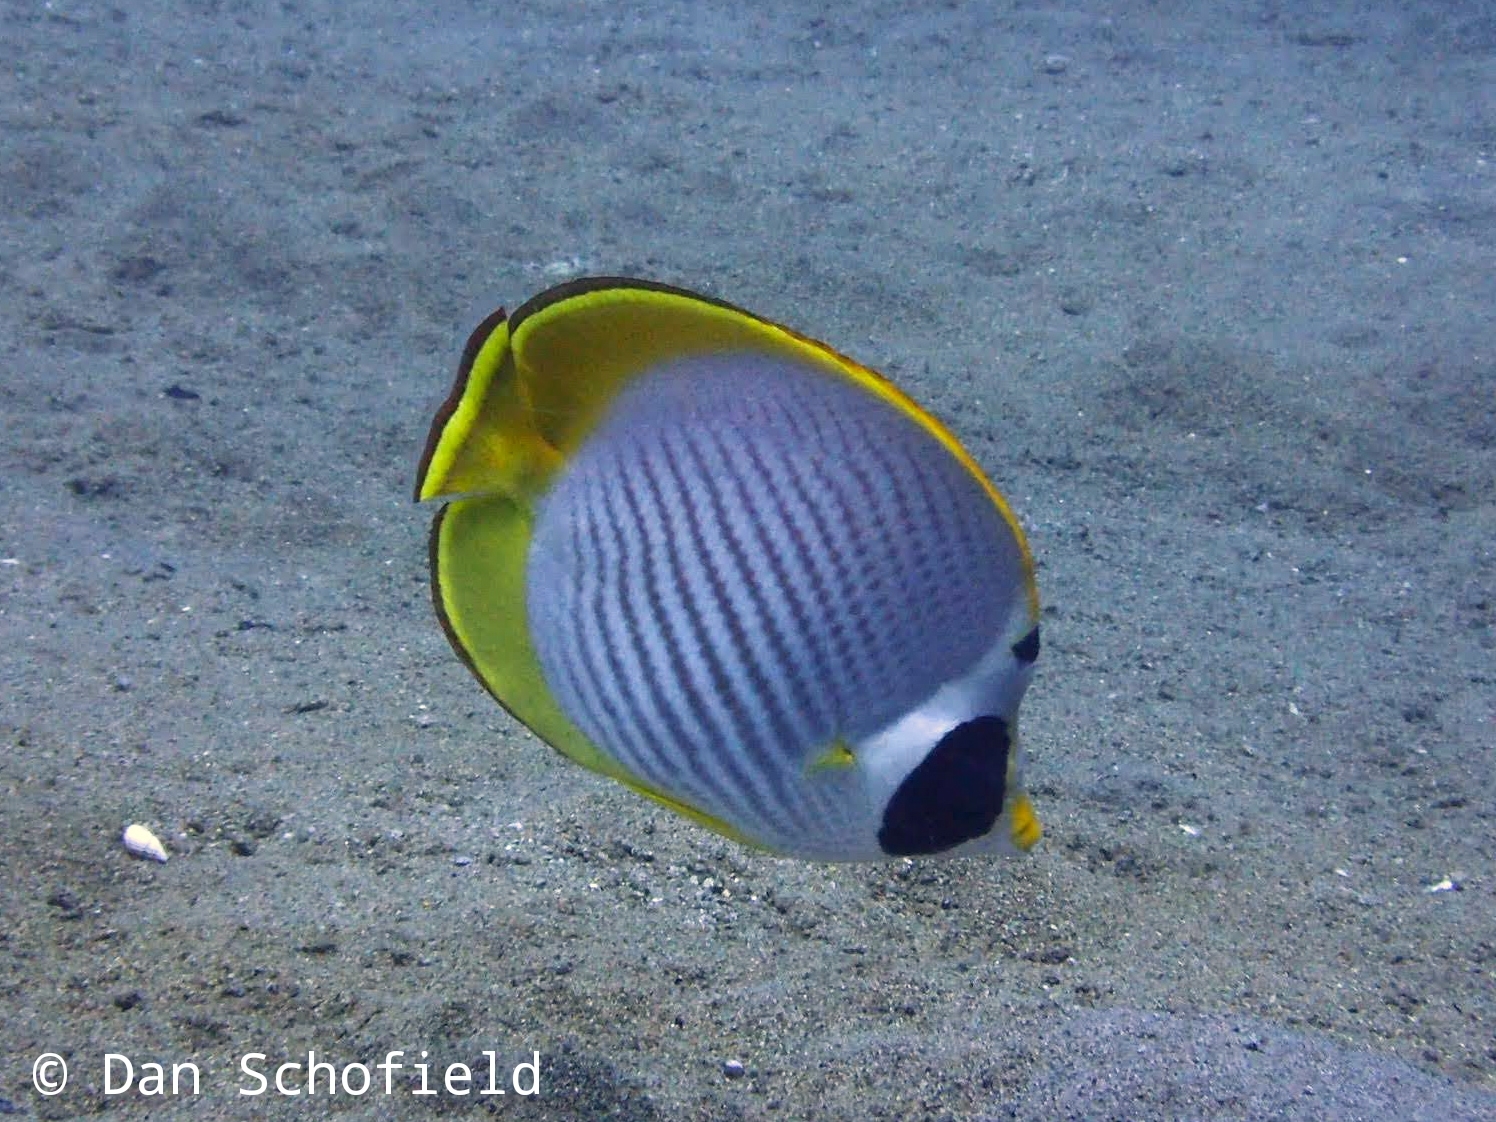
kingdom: Animalia
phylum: Chordata
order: Perciformes
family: Chaetodontidae
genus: Chaetodon
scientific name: Chaetodon adiergastos
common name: Eye-patch butterflyfish
